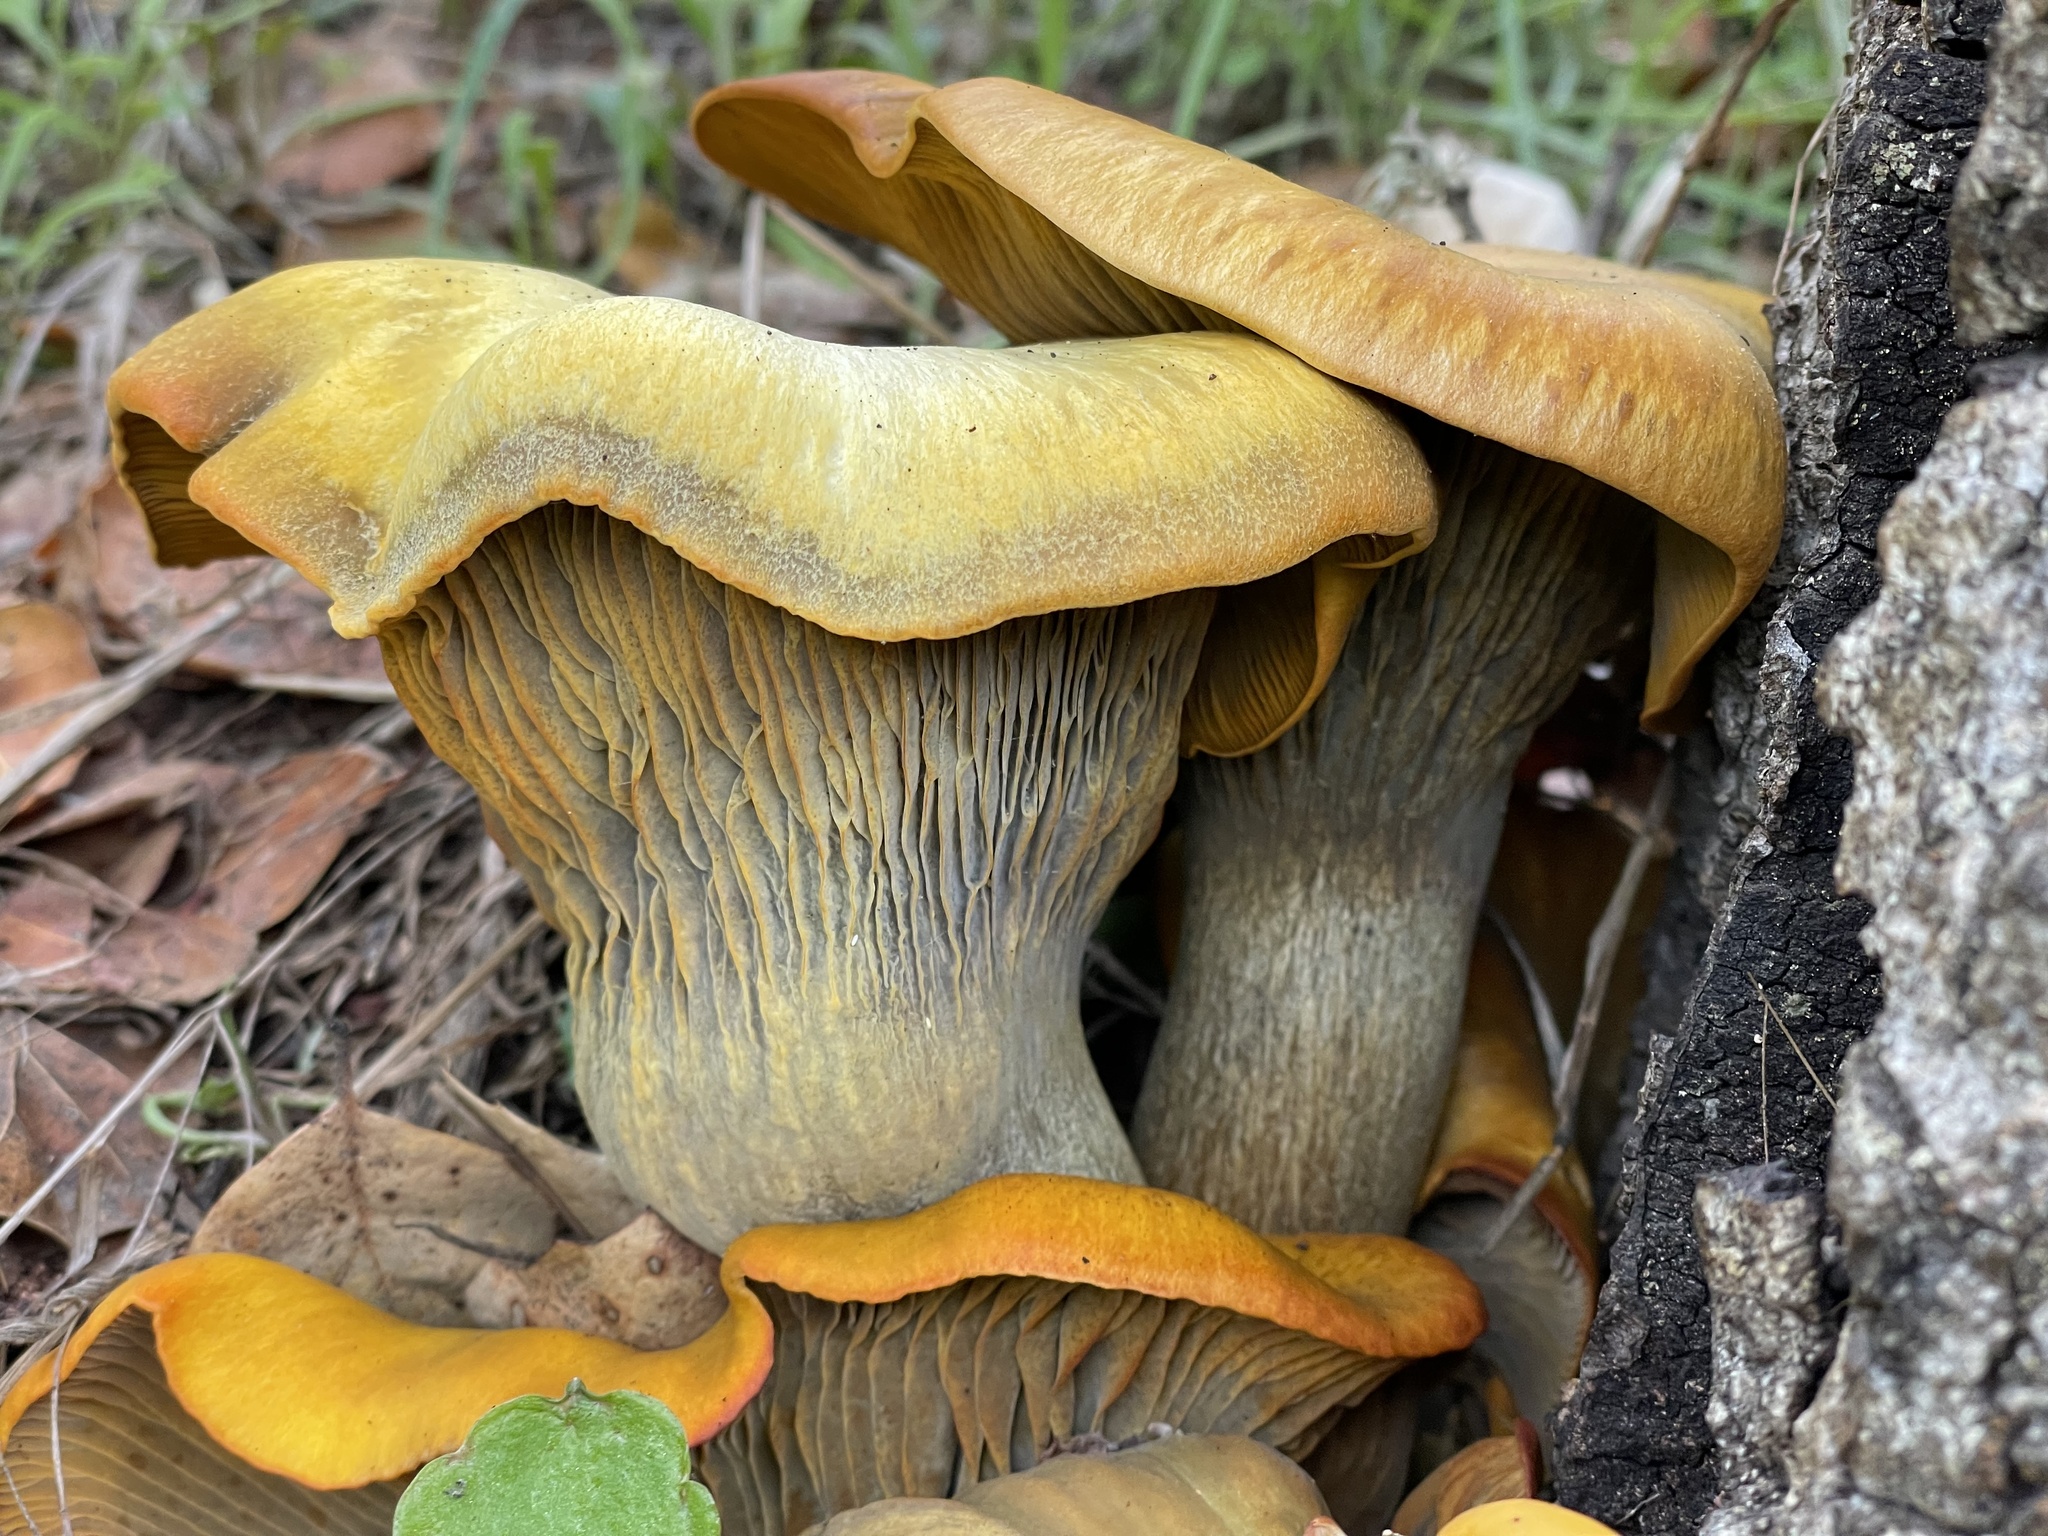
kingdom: Fungi
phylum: Basidiomycota
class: Agaricomycetes
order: Agaricales
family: Omphalotaceae
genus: Omphalotus
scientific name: Omphalotus olivascens
